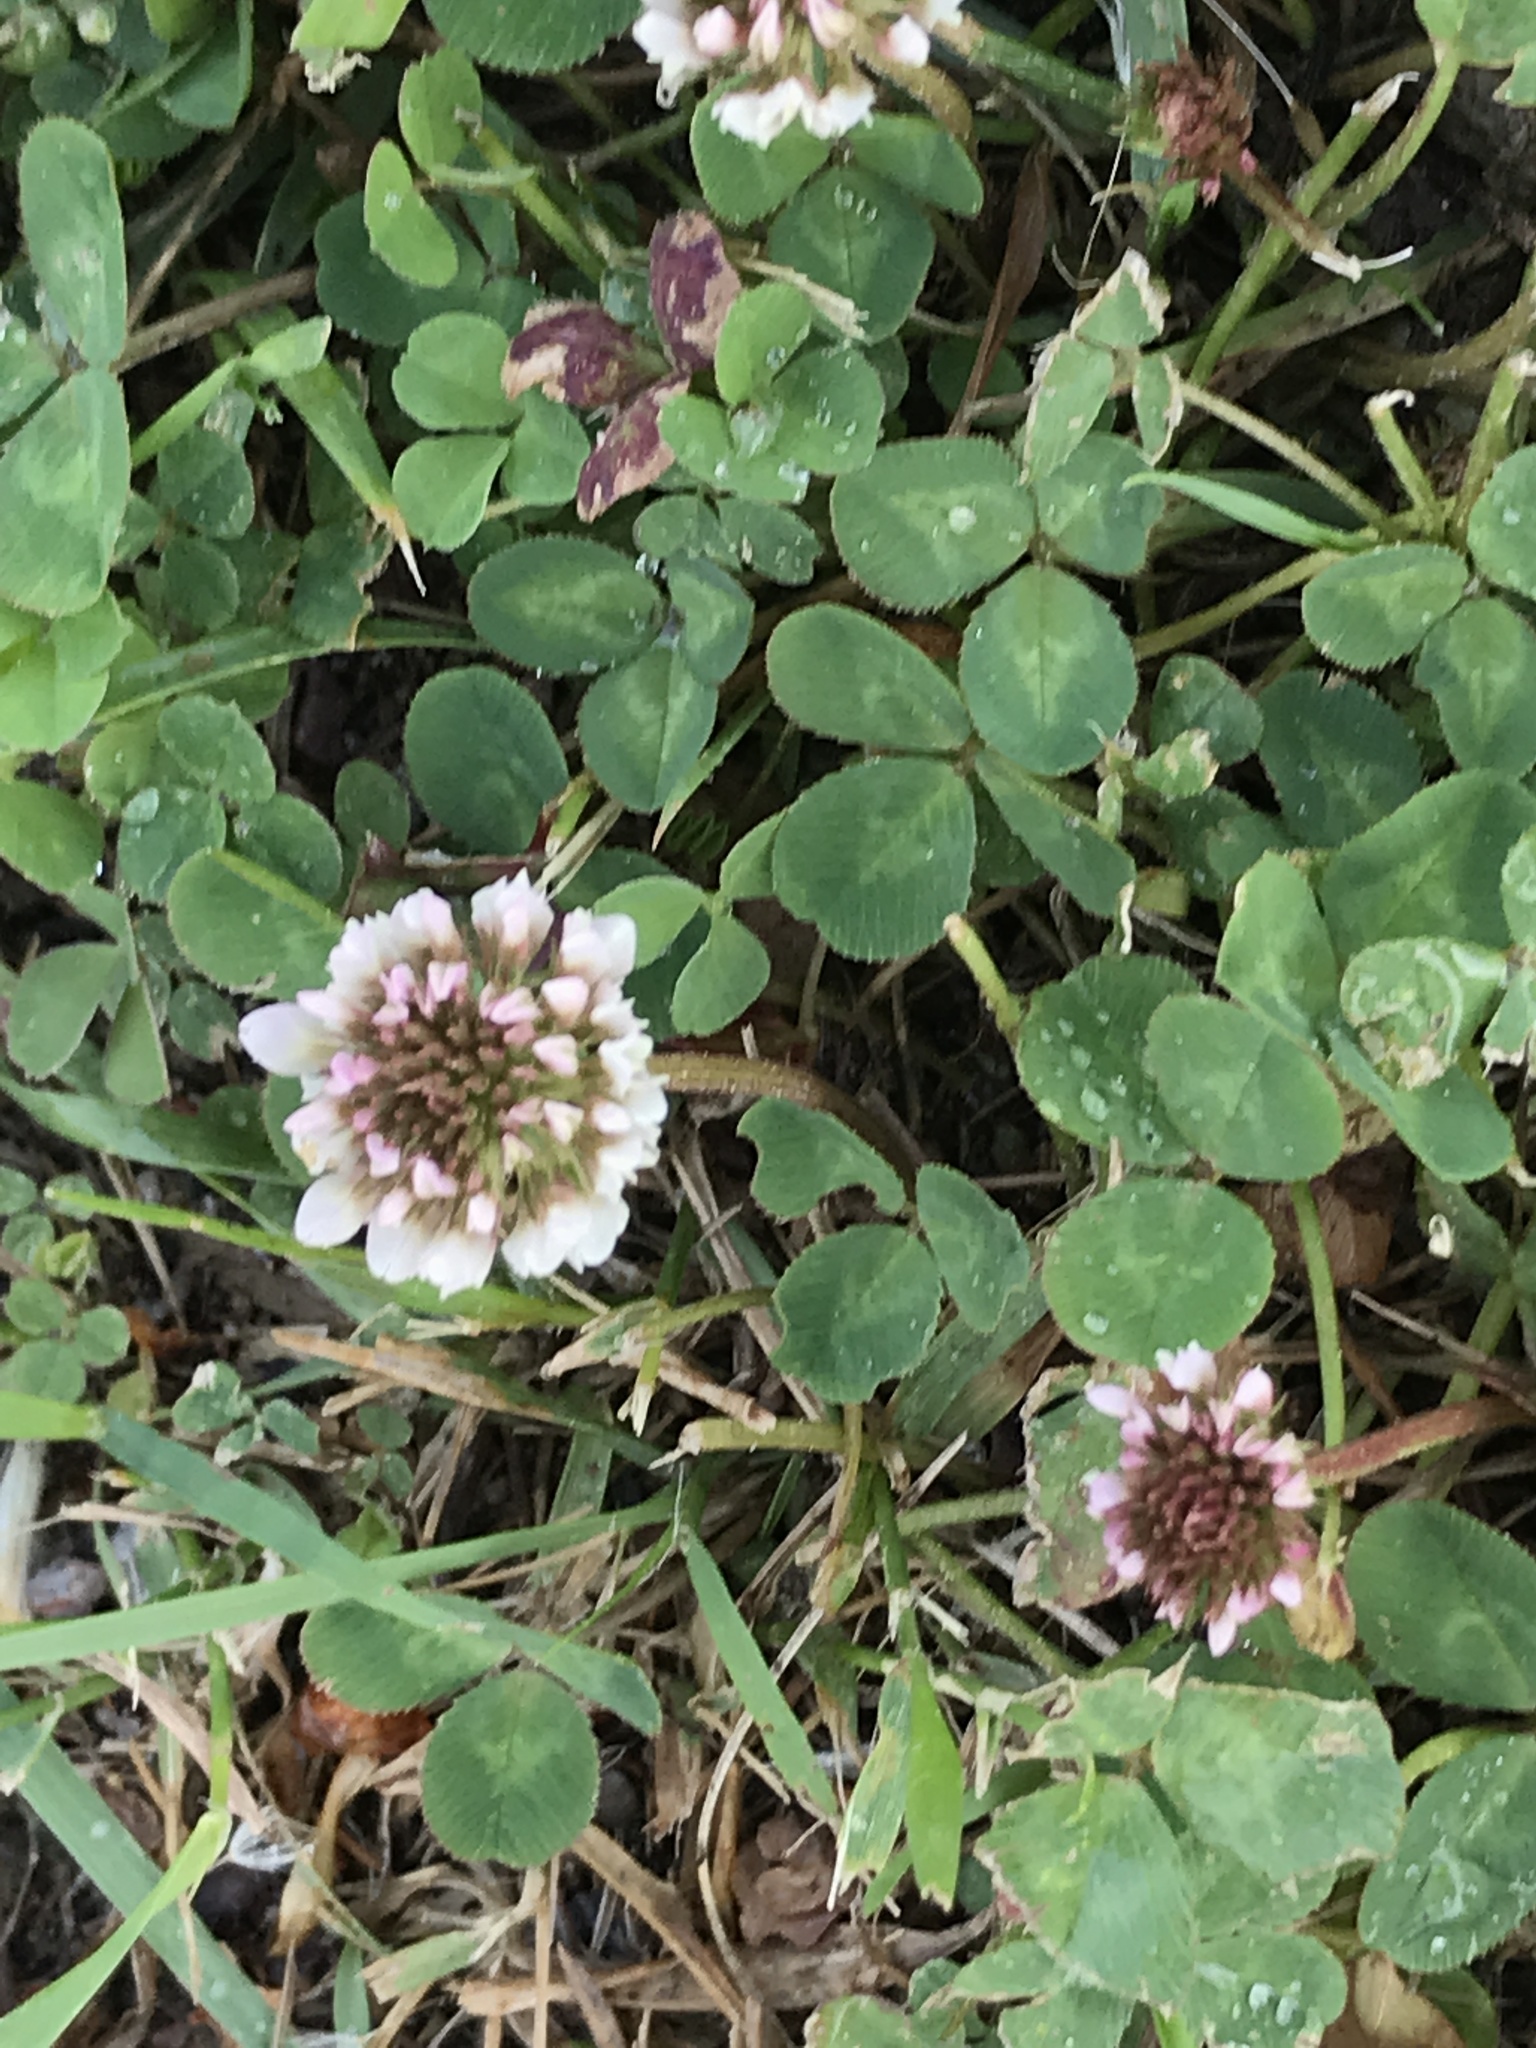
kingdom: Plantae
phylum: Tracheophyta
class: Magnoliopsida
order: Fabales
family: Fabaceae
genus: Trifolium
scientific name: Trifolium repens
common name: White clover
